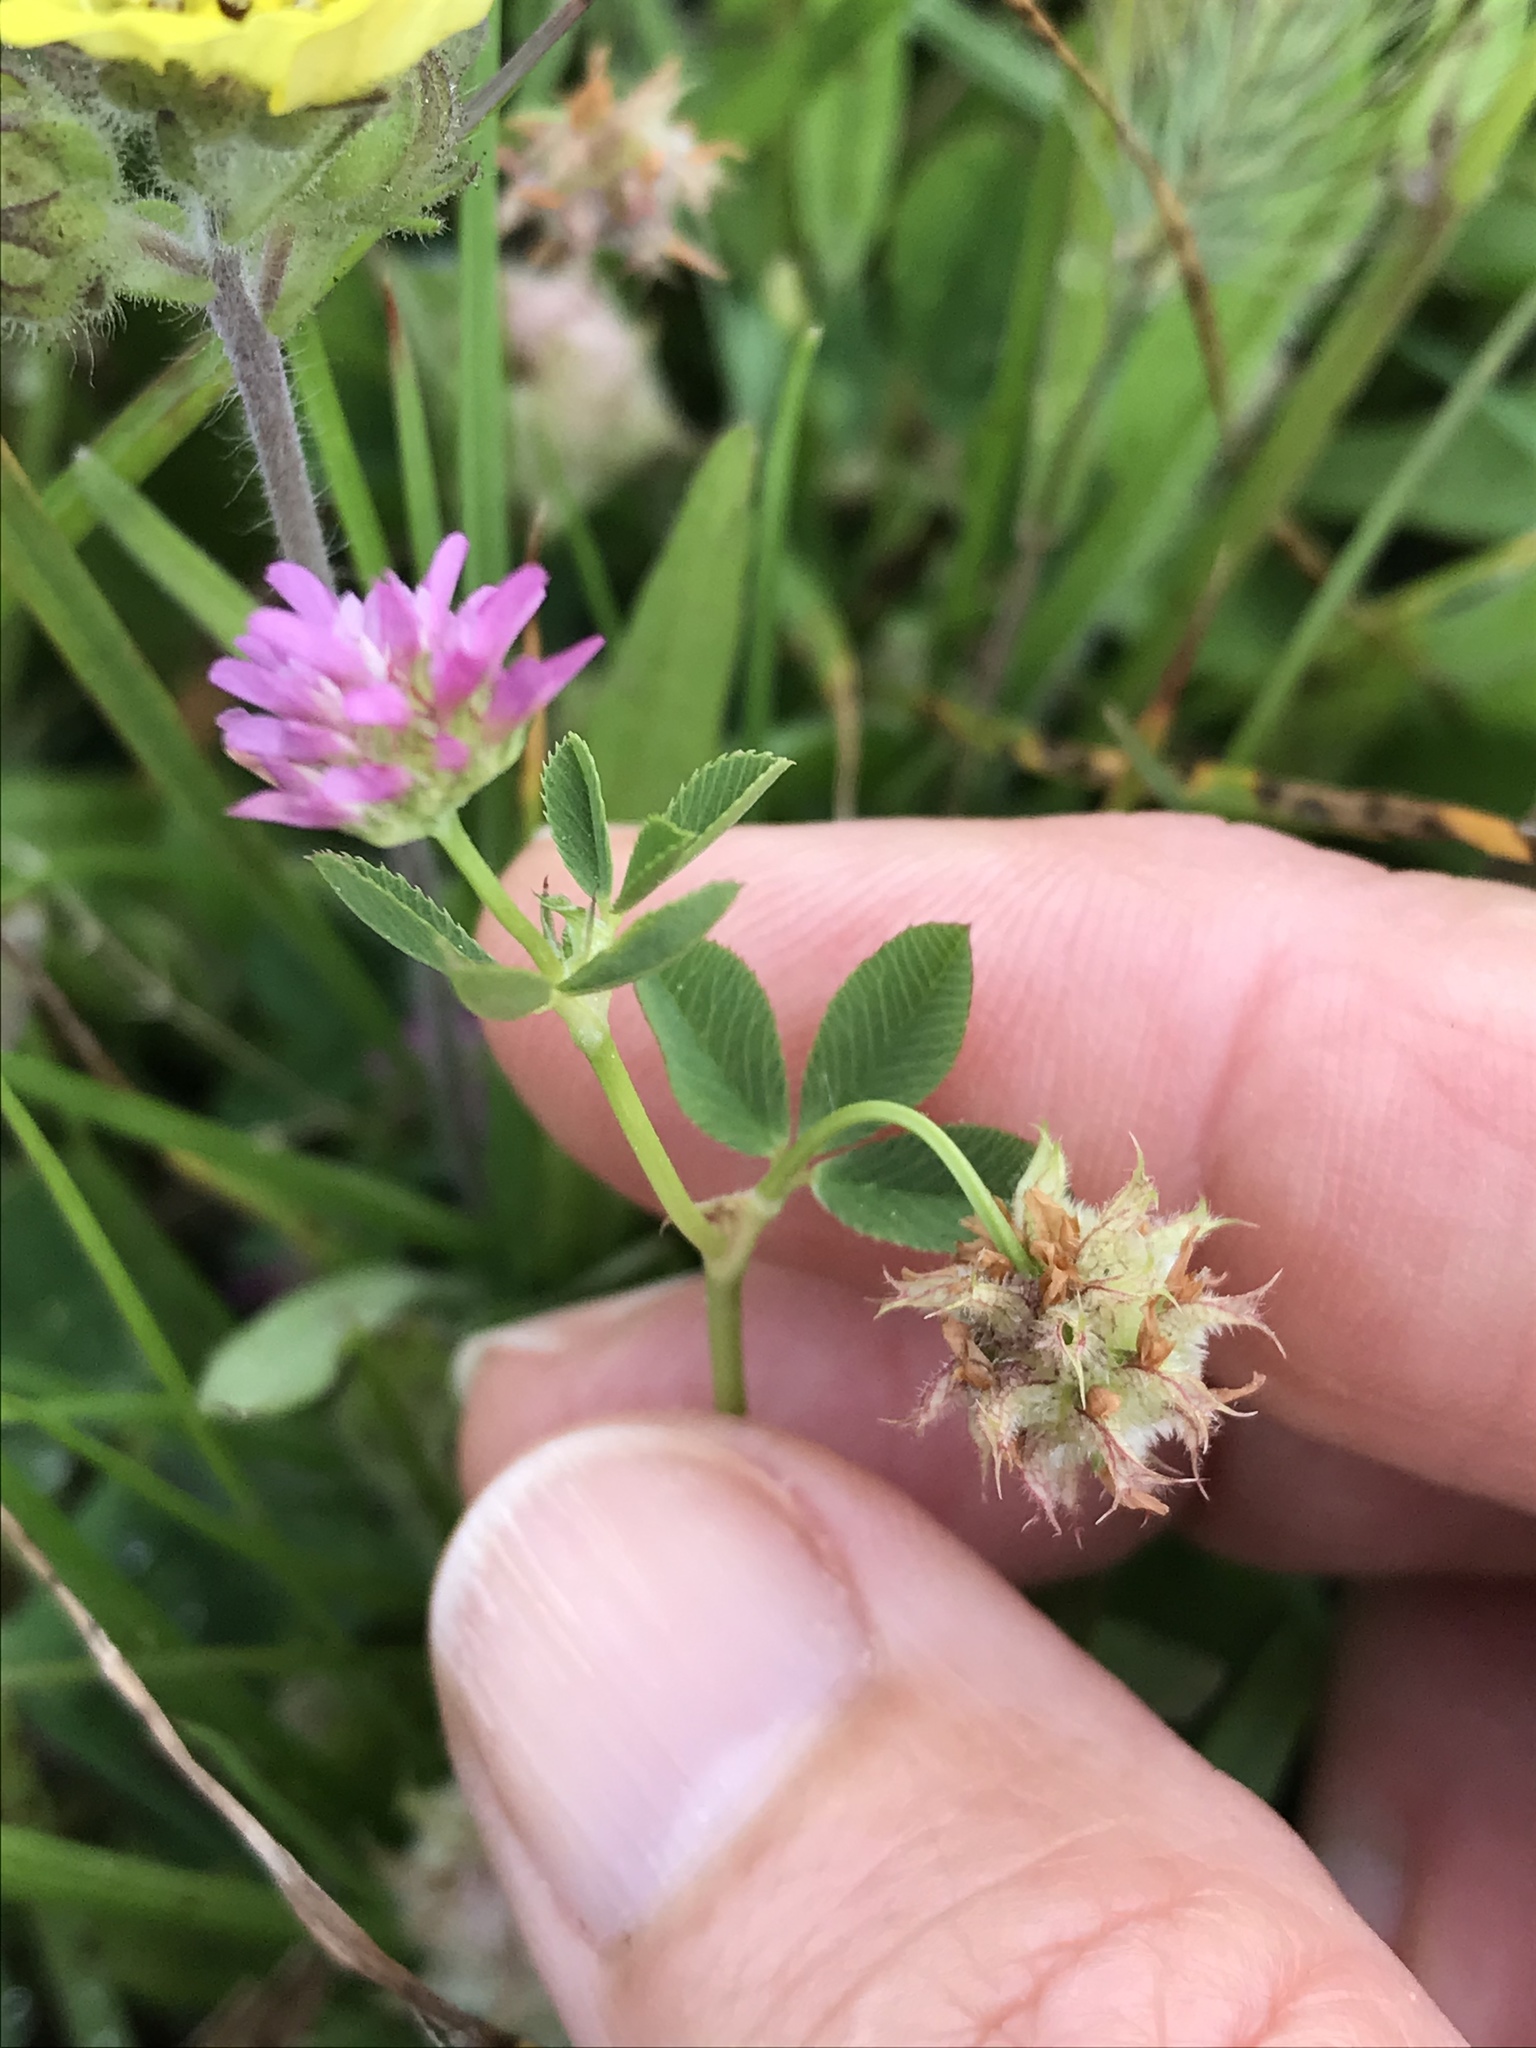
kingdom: Plantae
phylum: Tracheophyta
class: Magnoliopsida
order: Fabales
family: Fabaceae
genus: Trifolium
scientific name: Trifolium resupinatum
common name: Reversed clover
